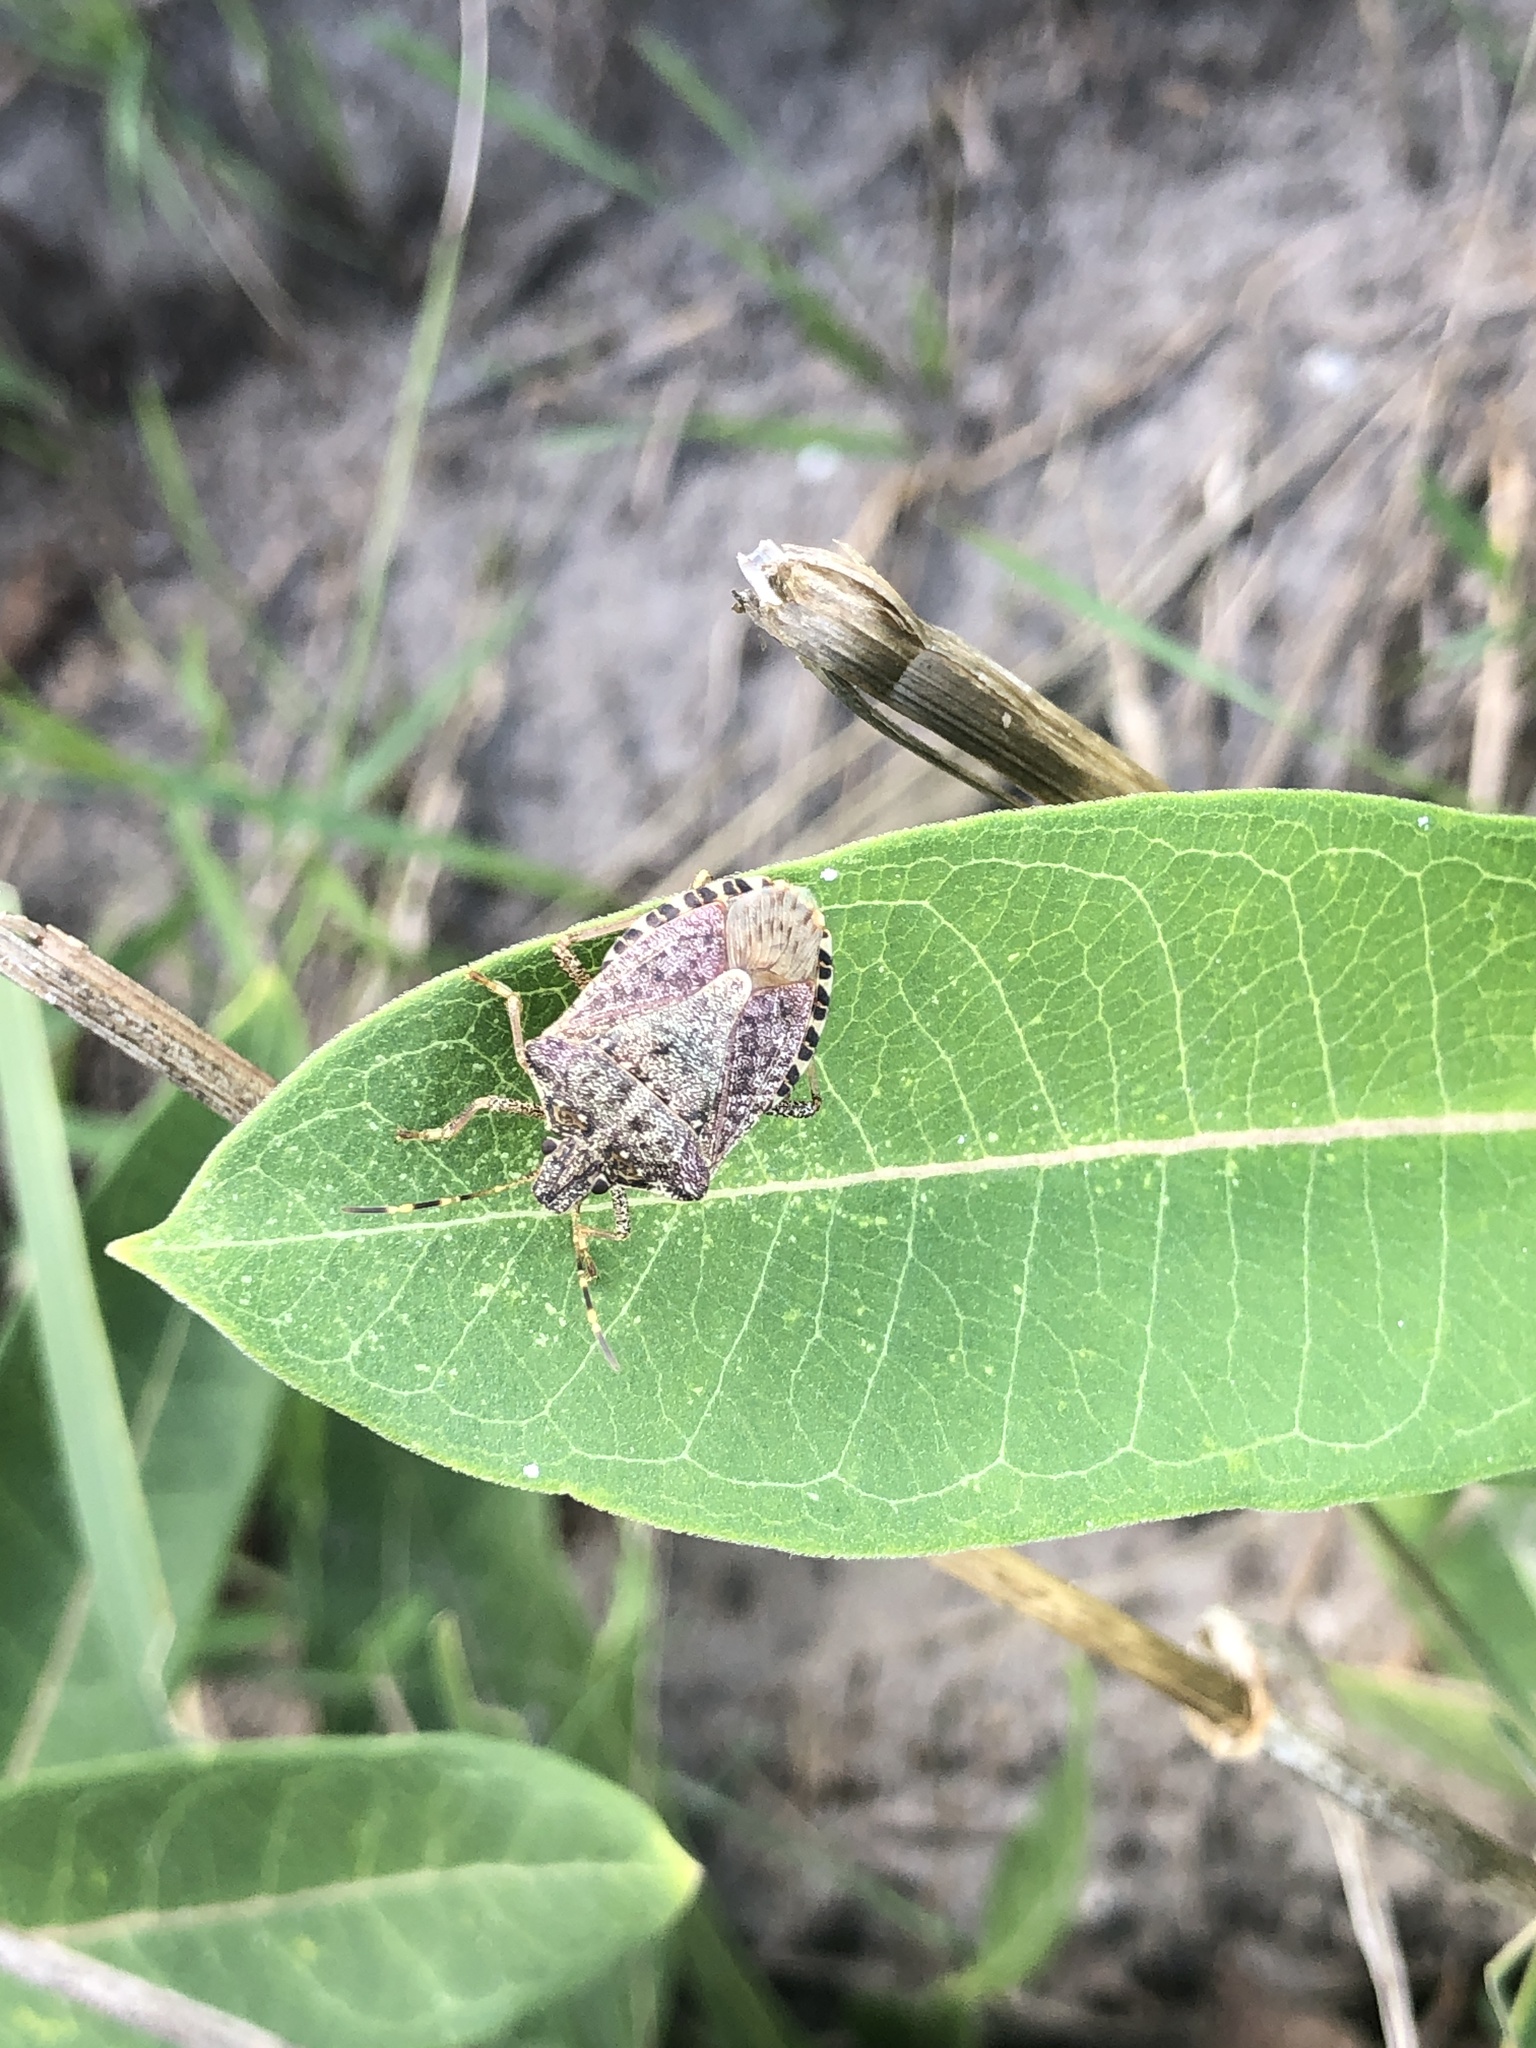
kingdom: Animalia
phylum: Arthropoda
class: Insecta
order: Hemiptera
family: Pentatomidae
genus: Halyomorpha
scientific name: Halyomorpha halys
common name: Brown marmorated stink bug
